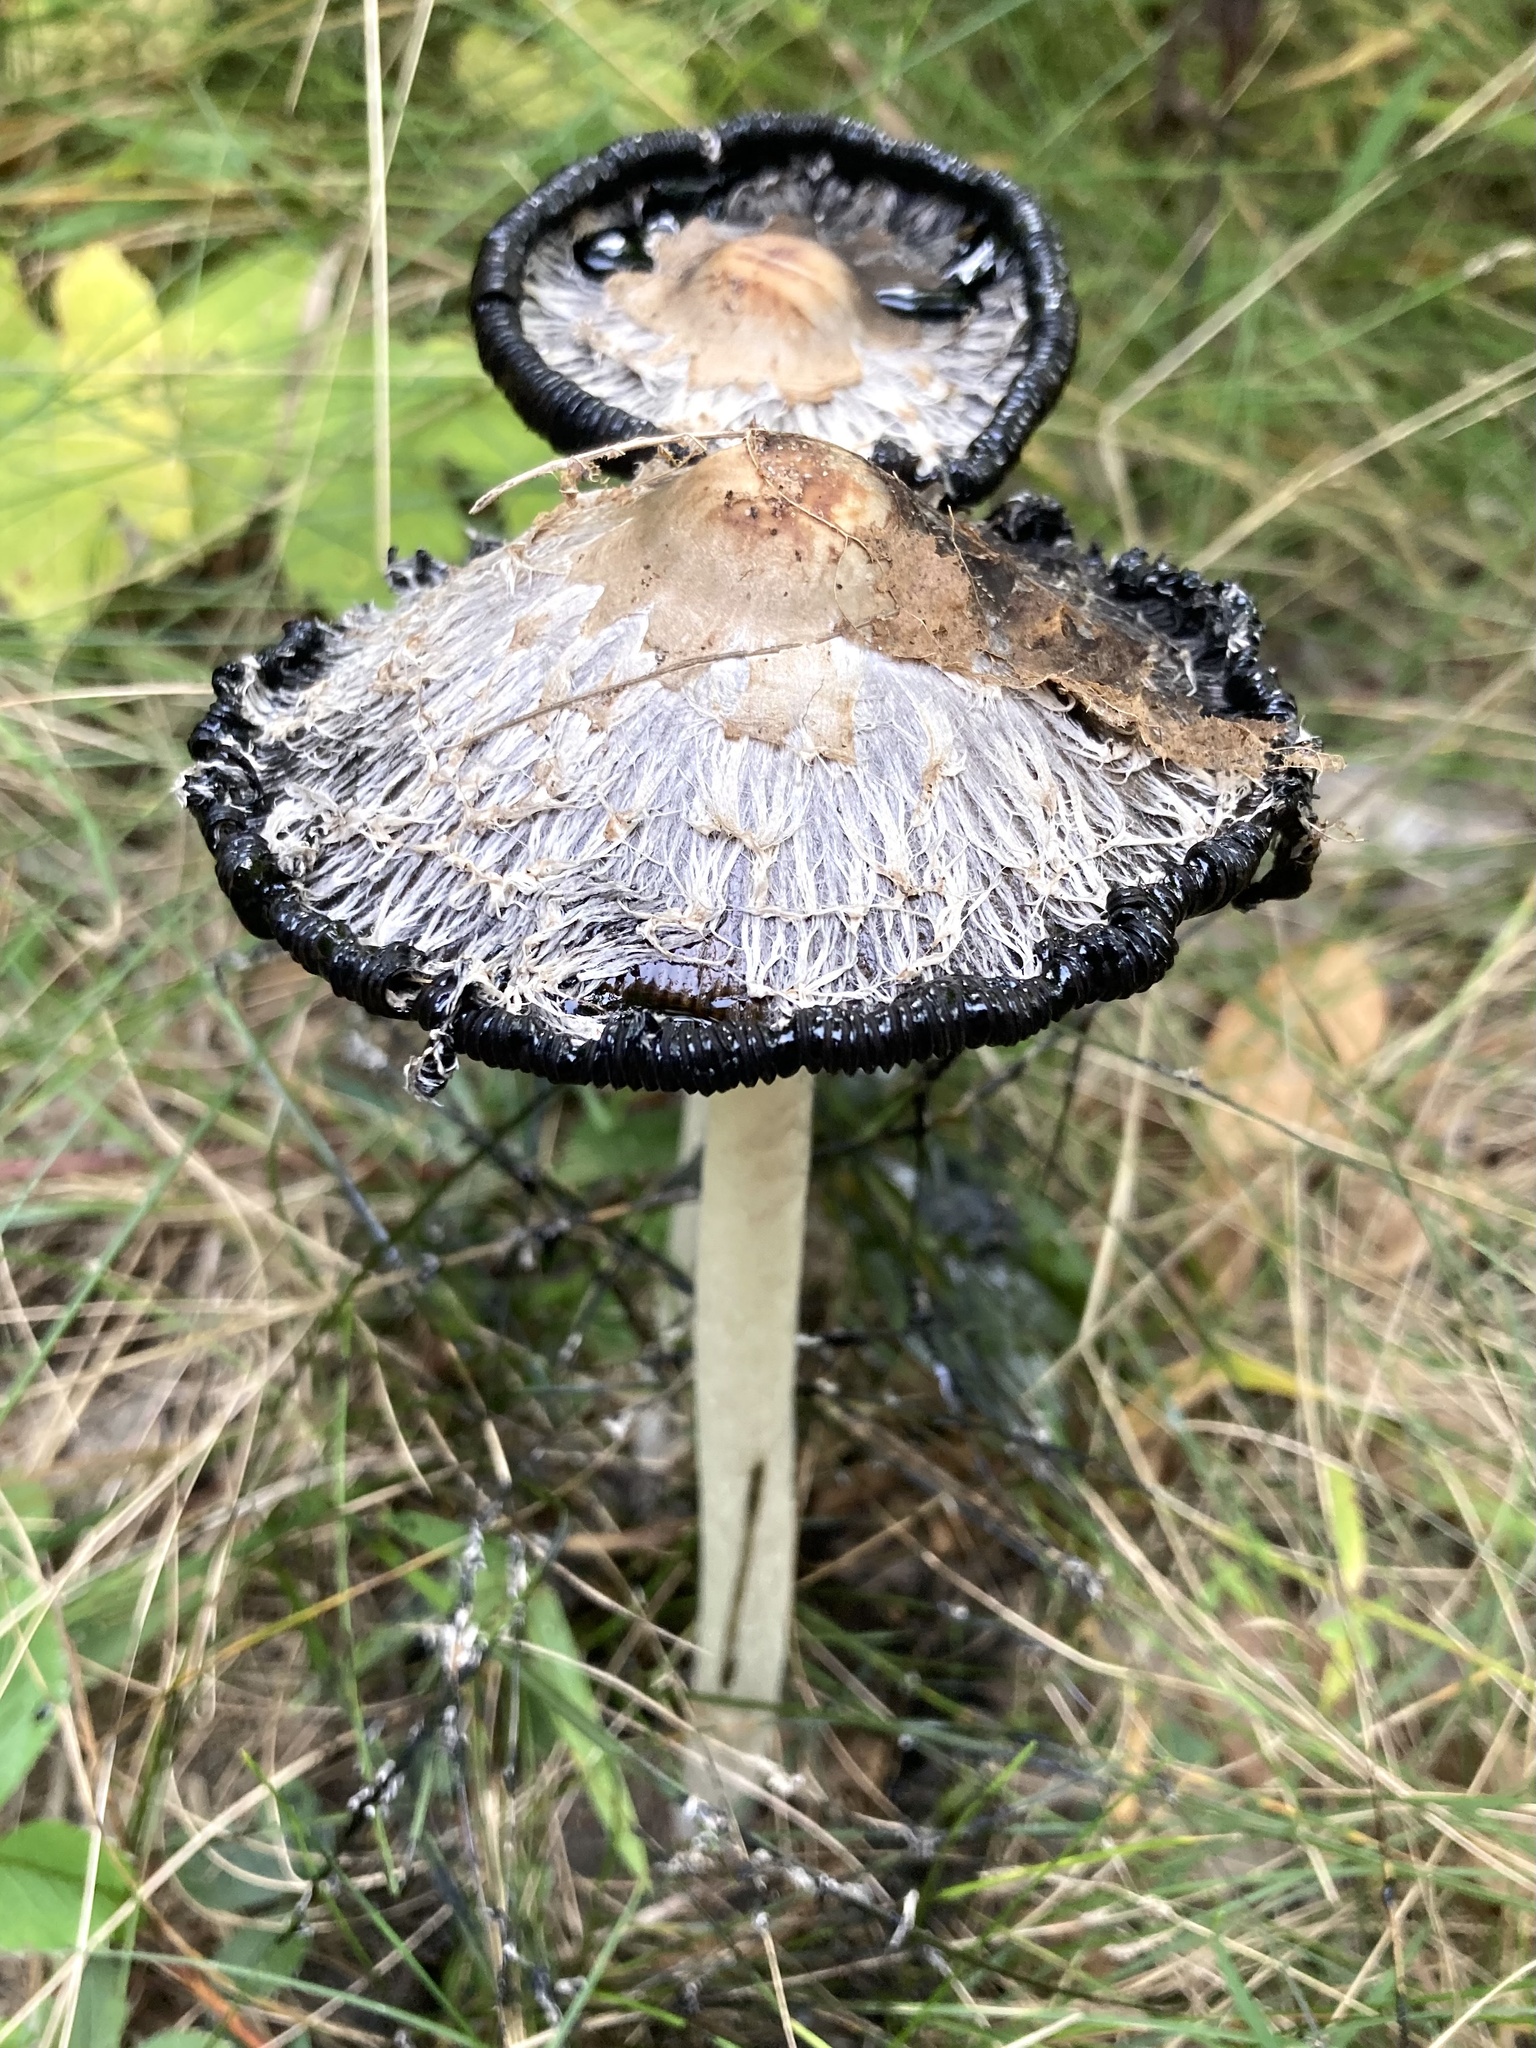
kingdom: Fungi
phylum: Basidiomycota
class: Agaricomycetes
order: Agaricales
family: Agaricaceae
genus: Coprinus
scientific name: Coprinus comatus
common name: Lawyer's wig
